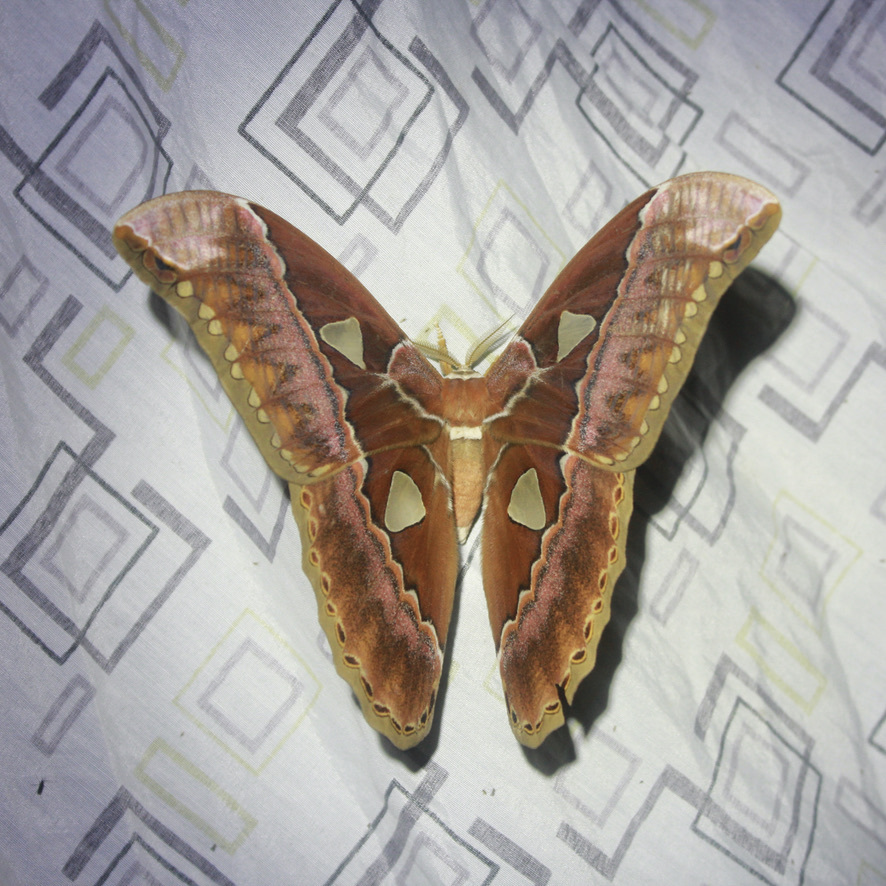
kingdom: Animalia
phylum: Arthropoda
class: Insecta
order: Lepidoptera
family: Saturniidae
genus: Rothschildia
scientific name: Rothschildia aurota
